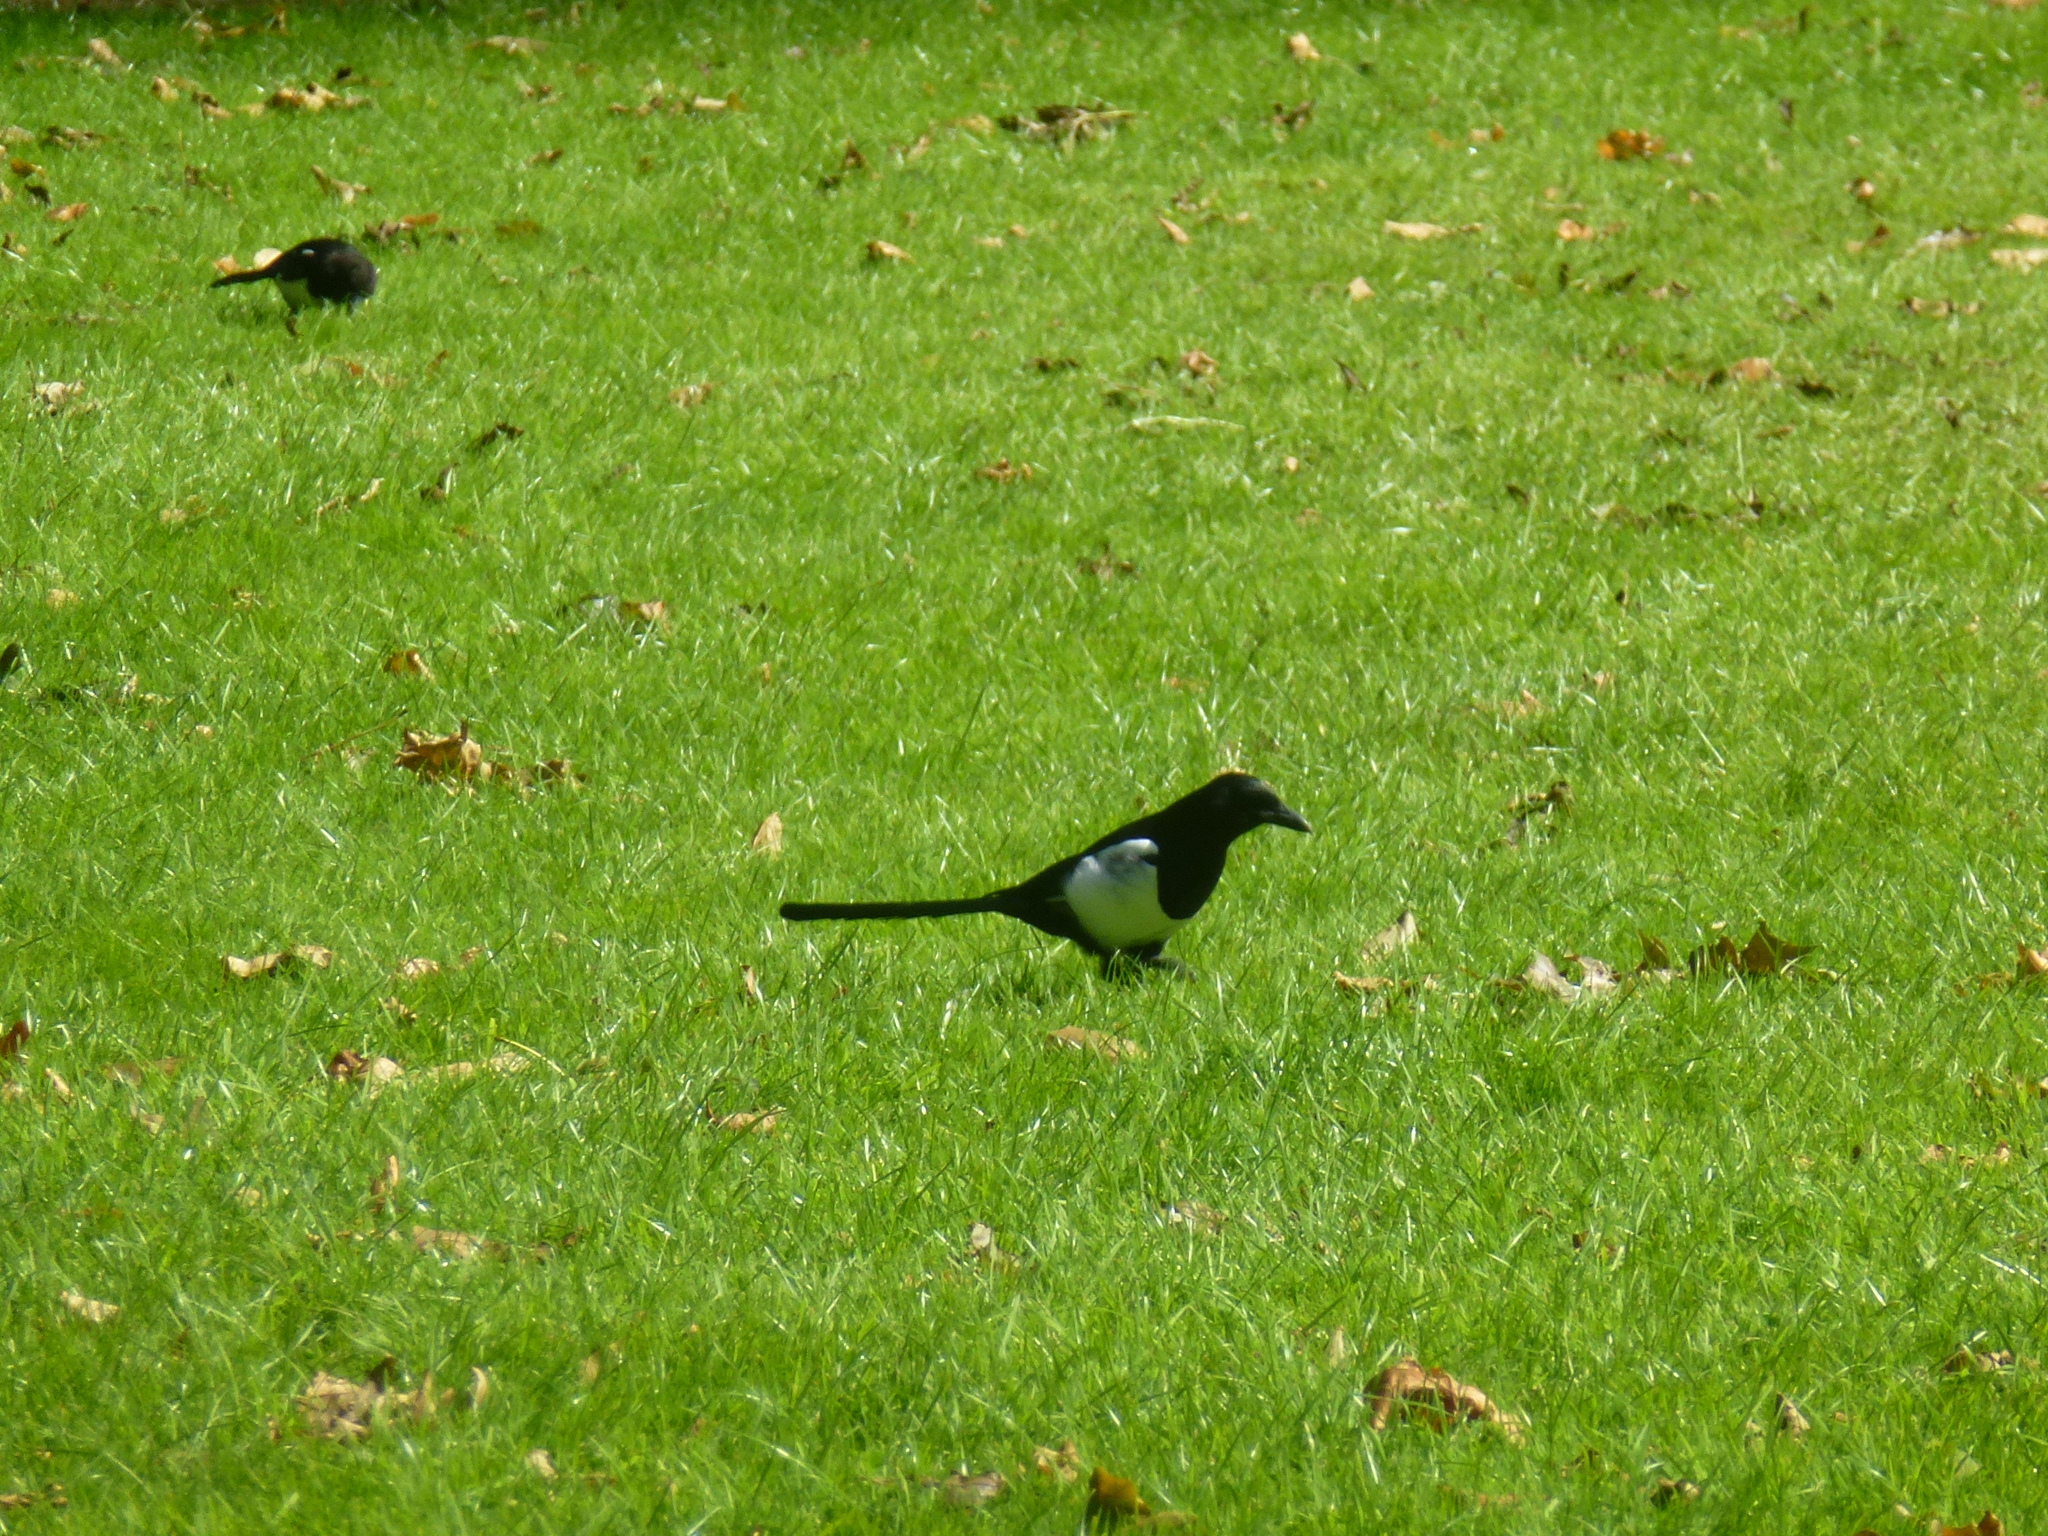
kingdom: Animalia
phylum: Chordata
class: Aves
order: Passeriformes
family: Corvidae
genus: Pica
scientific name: Pica pica
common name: Eurasian magpie
